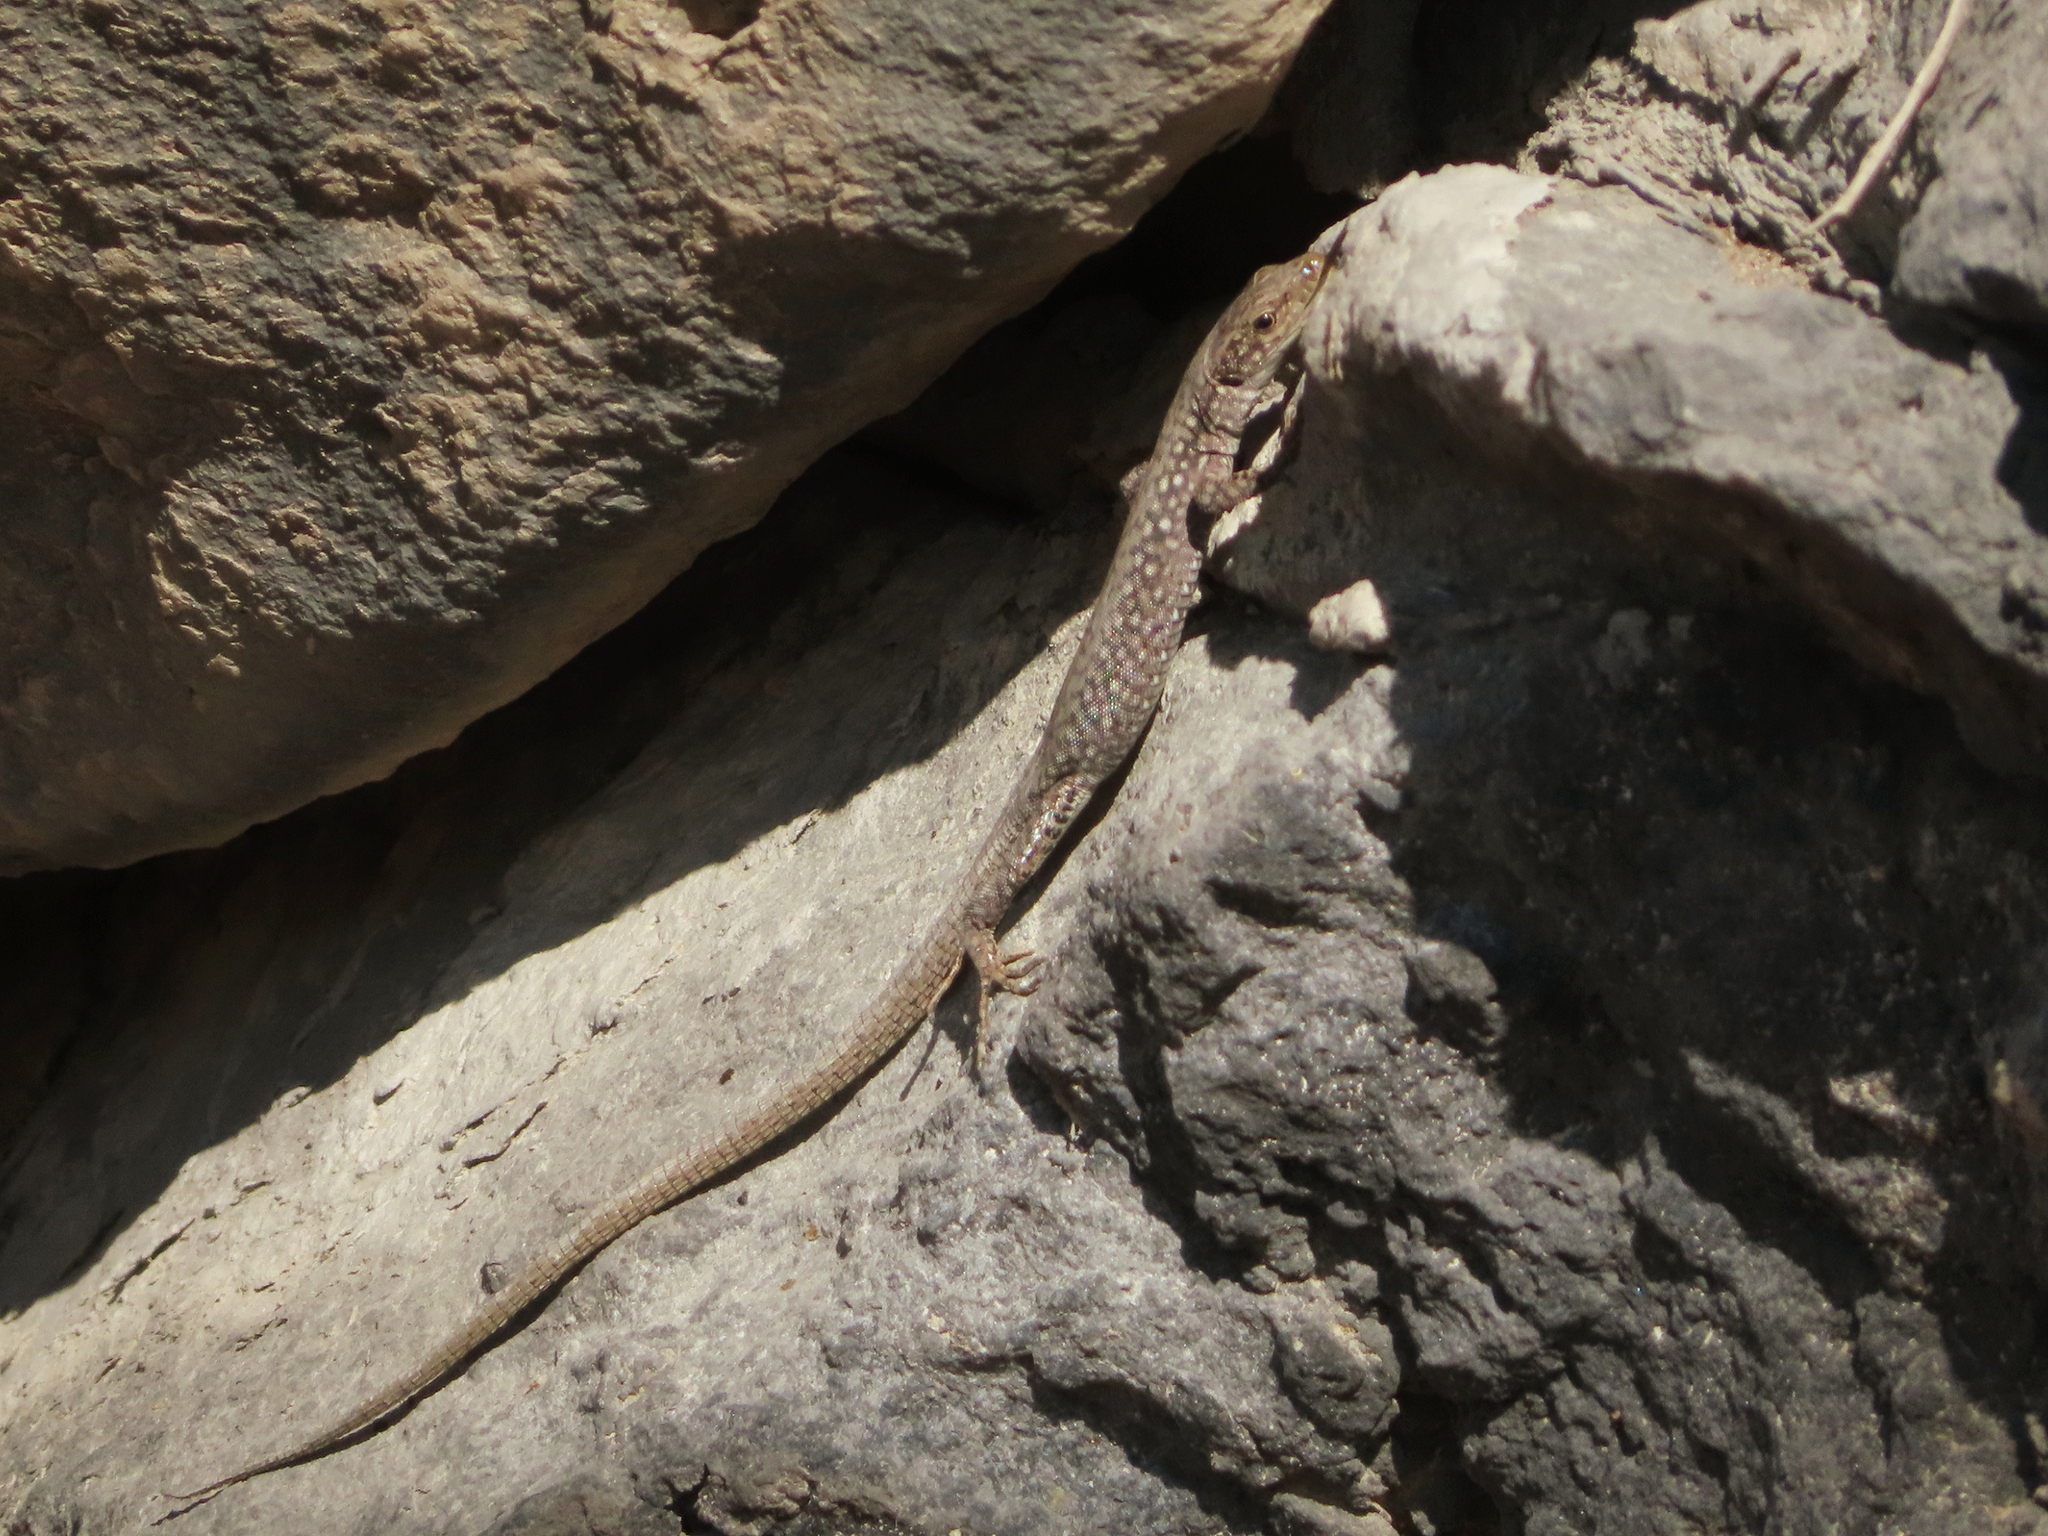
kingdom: Animalia
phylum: Chordata
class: Squamata
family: Lacertidae
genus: Darevskia
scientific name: Darevskia
